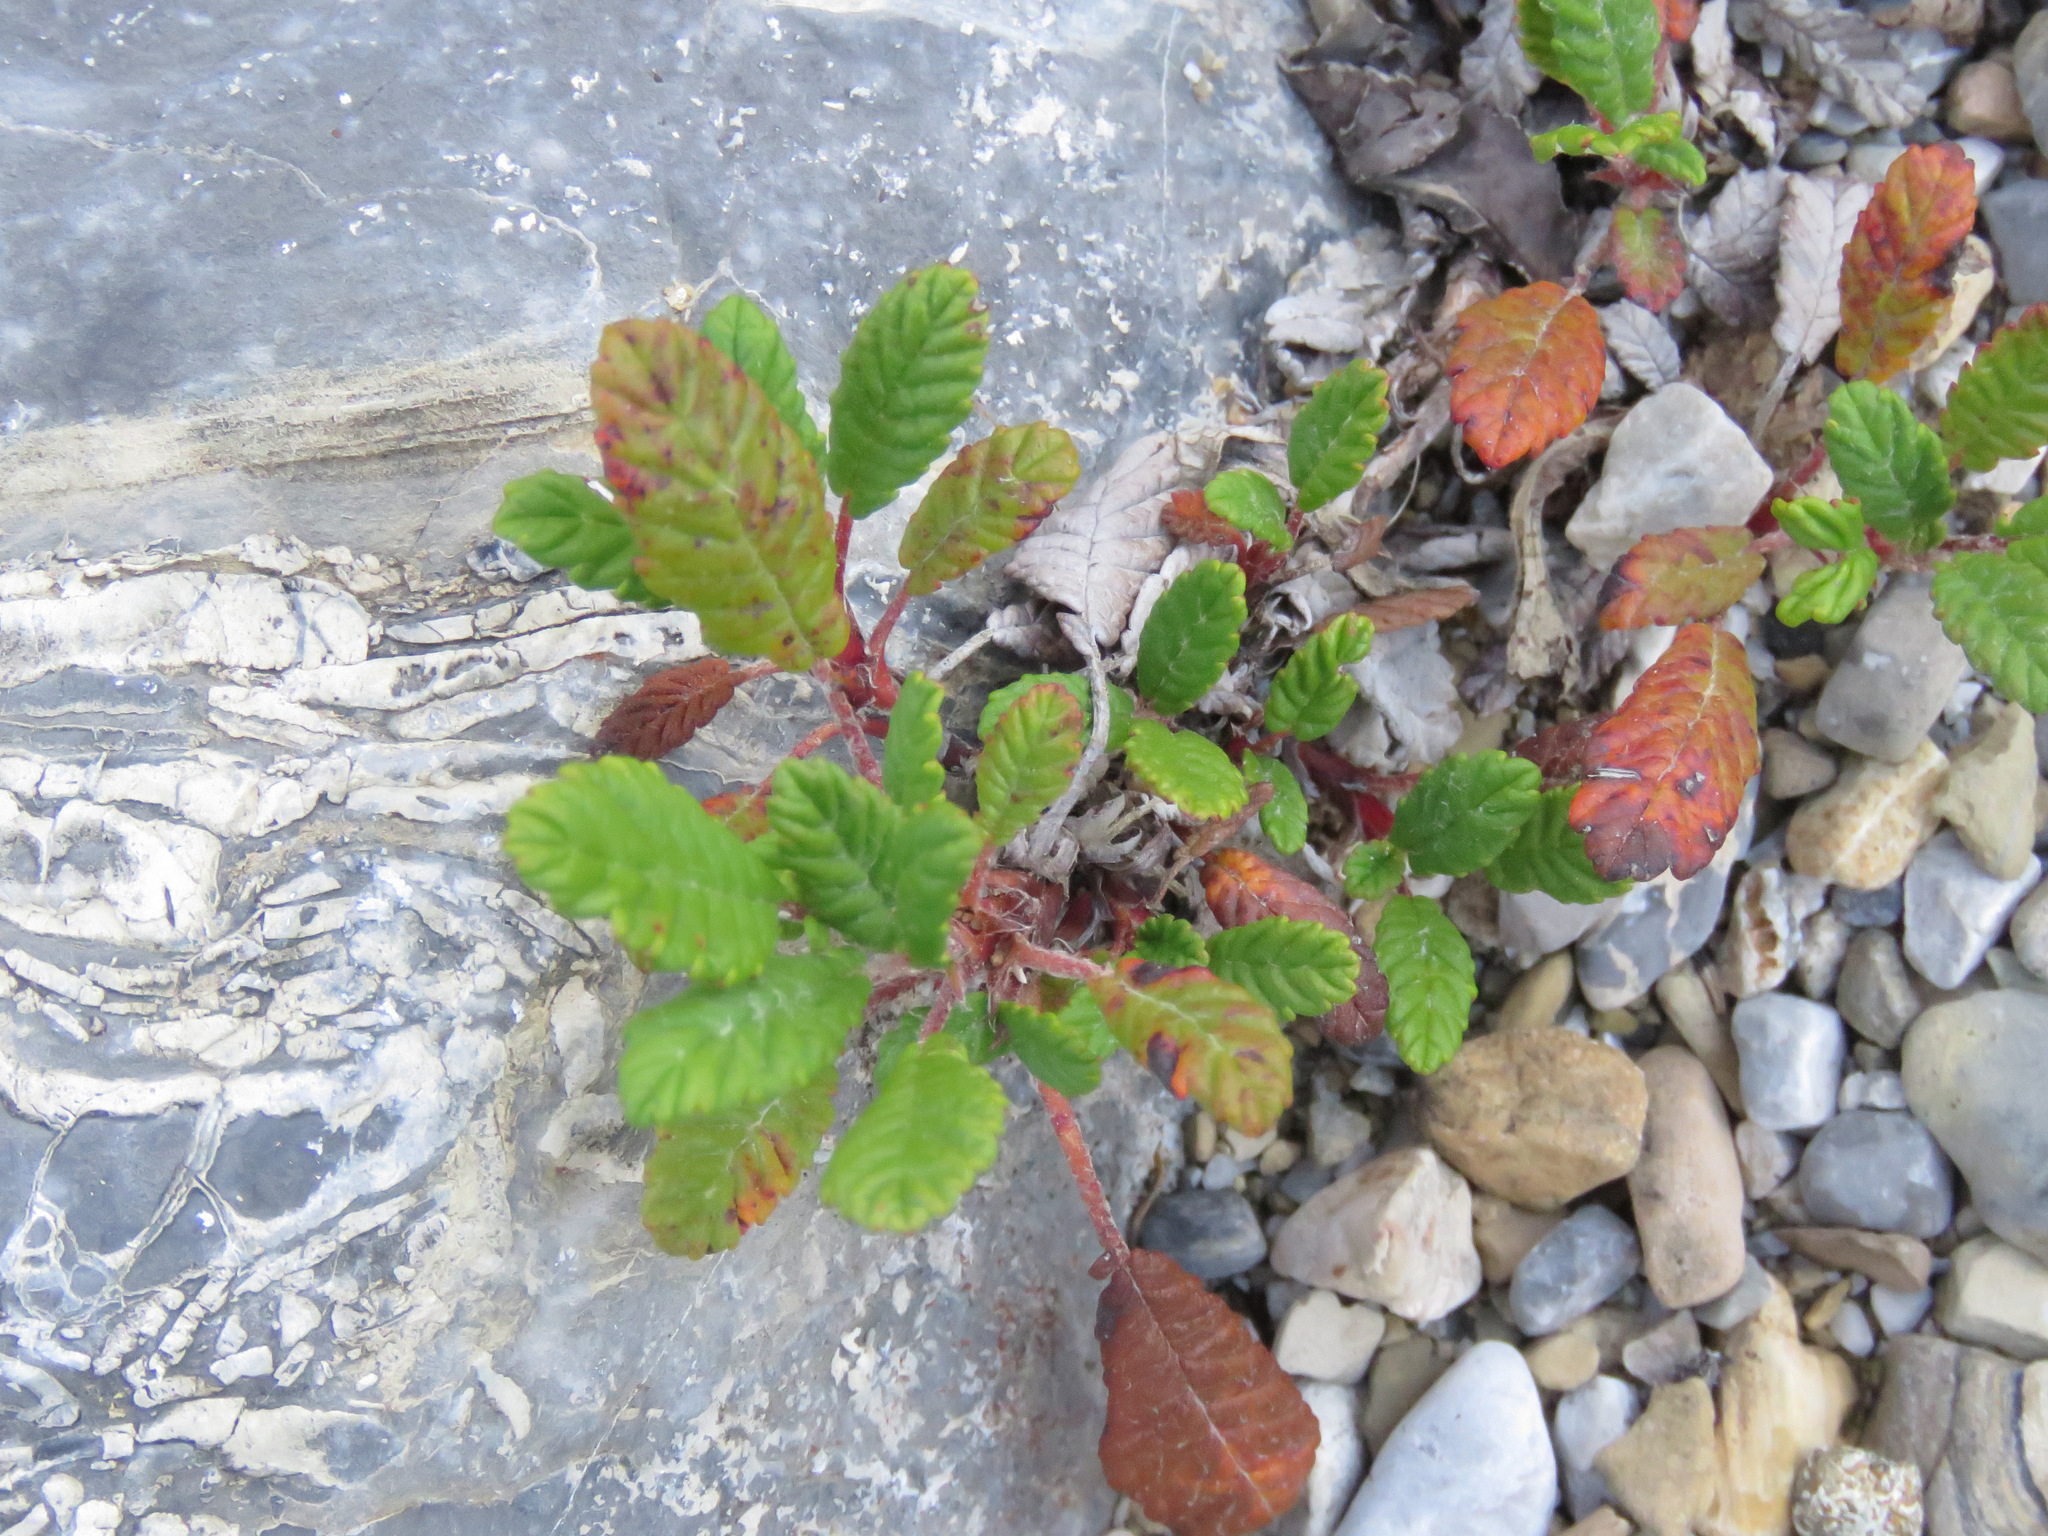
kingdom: Plantae
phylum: Tracheophyta
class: Magnoliopsida
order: Rosales
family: Rosaceae
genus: Dryas
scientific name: Dryas drummondii
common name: Drummond's dryad
